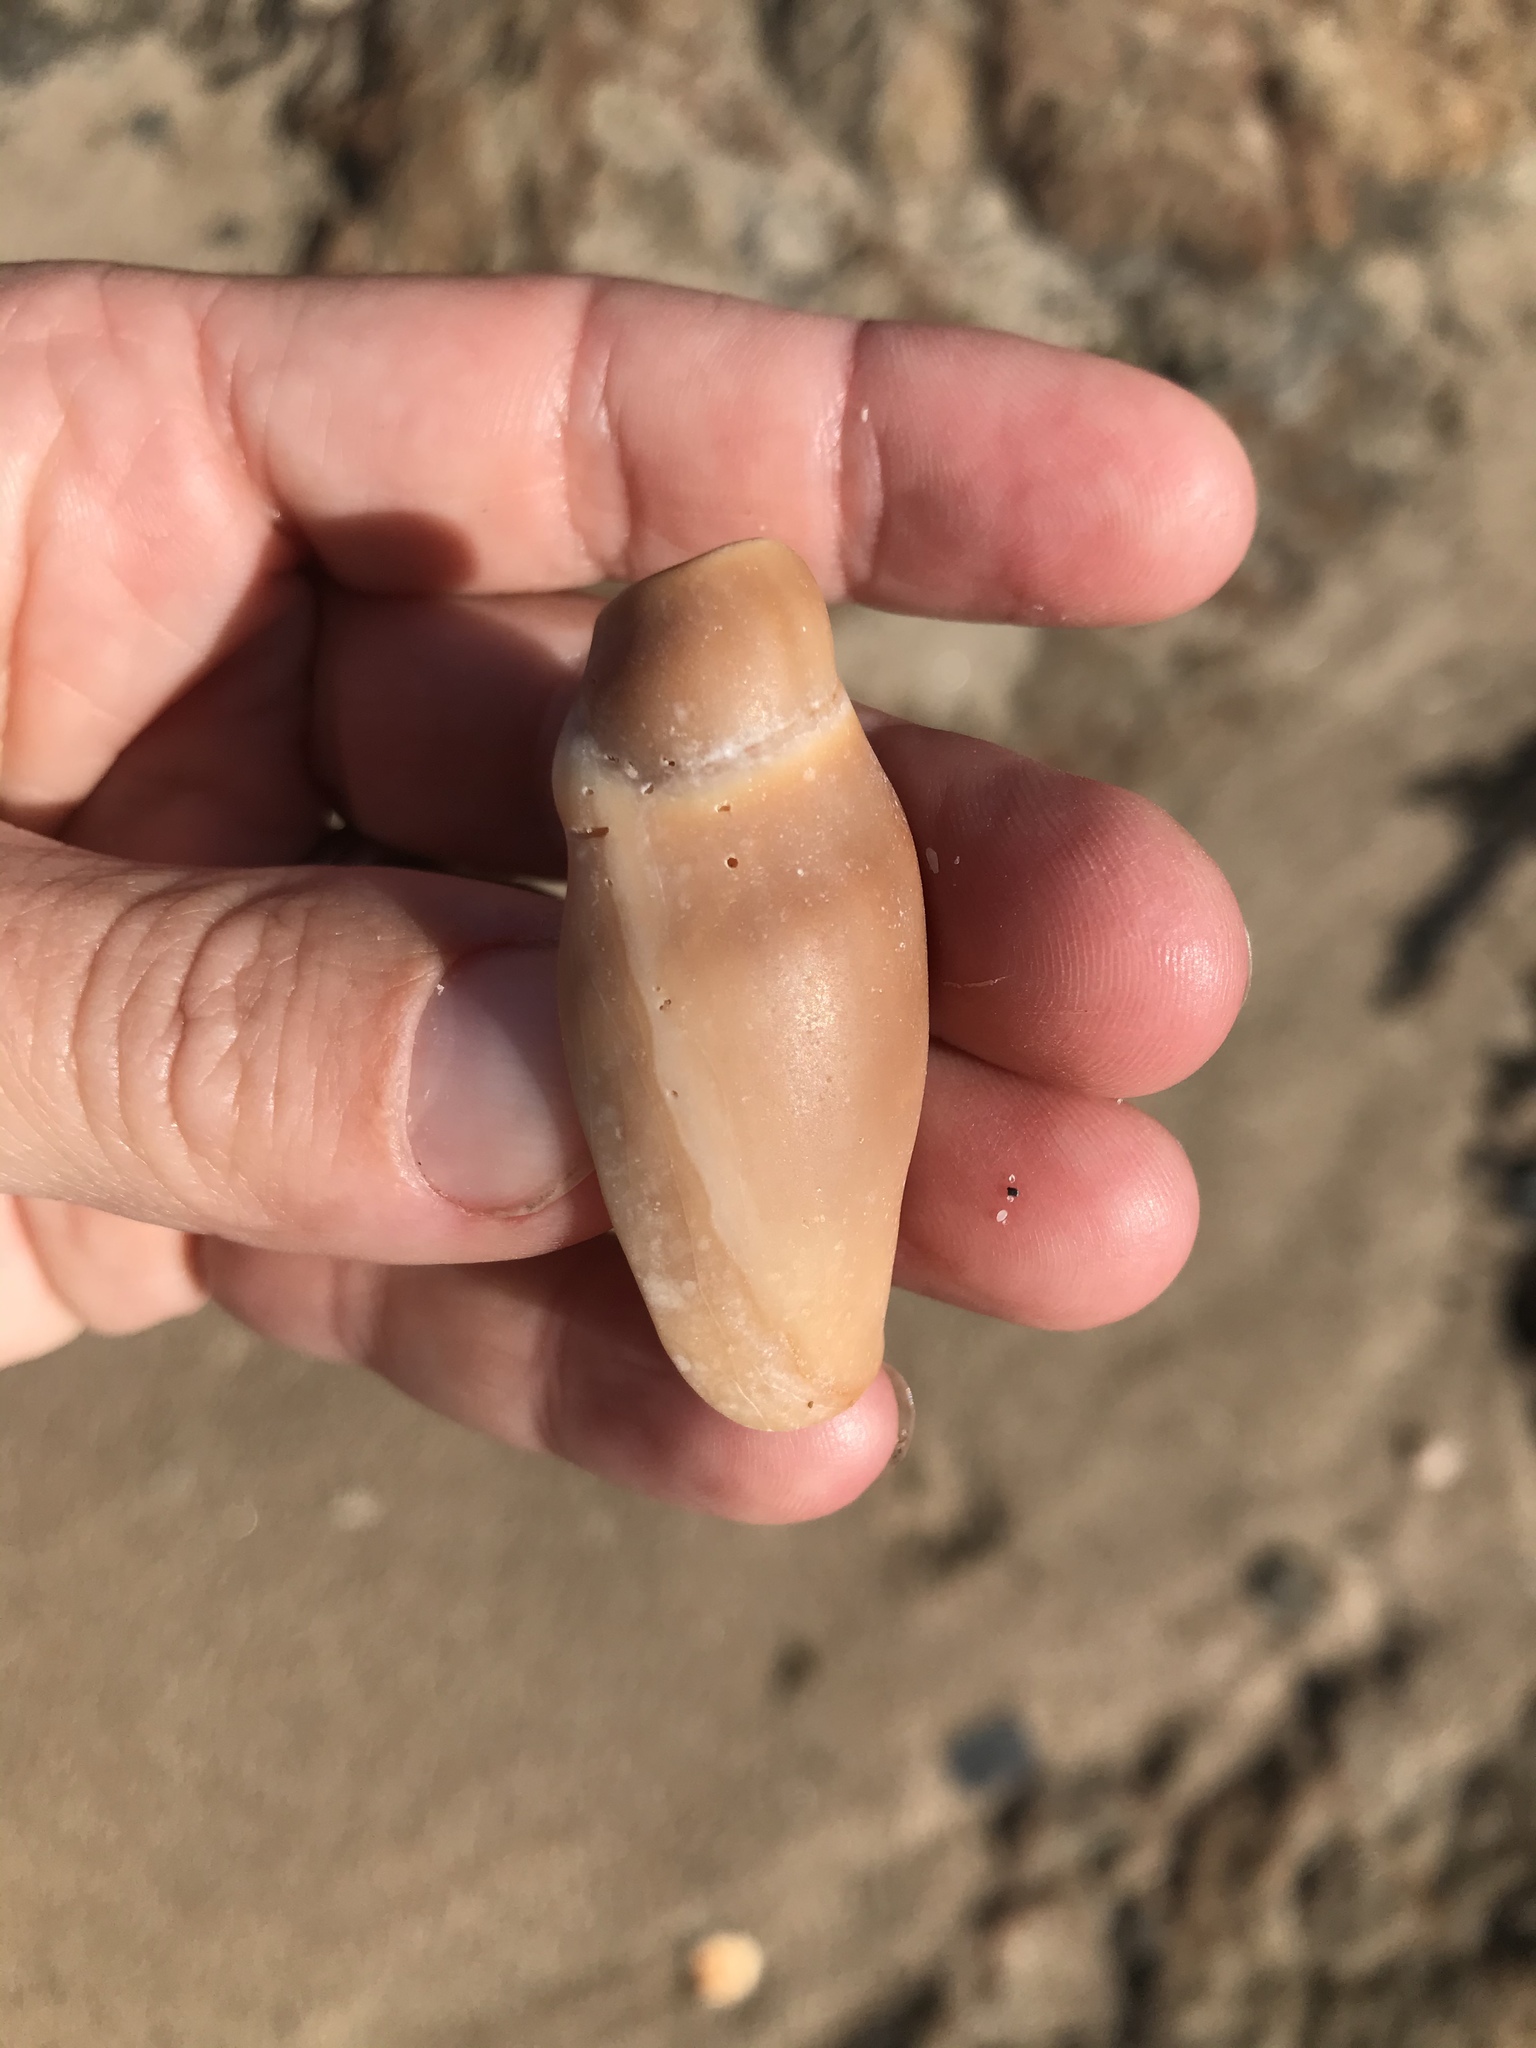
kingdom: Animalia
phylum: Mollusca
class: Gastropoda
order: Neogastropoda
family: Volutidae
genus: Alcithoe
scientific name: Alcithoe fusus
